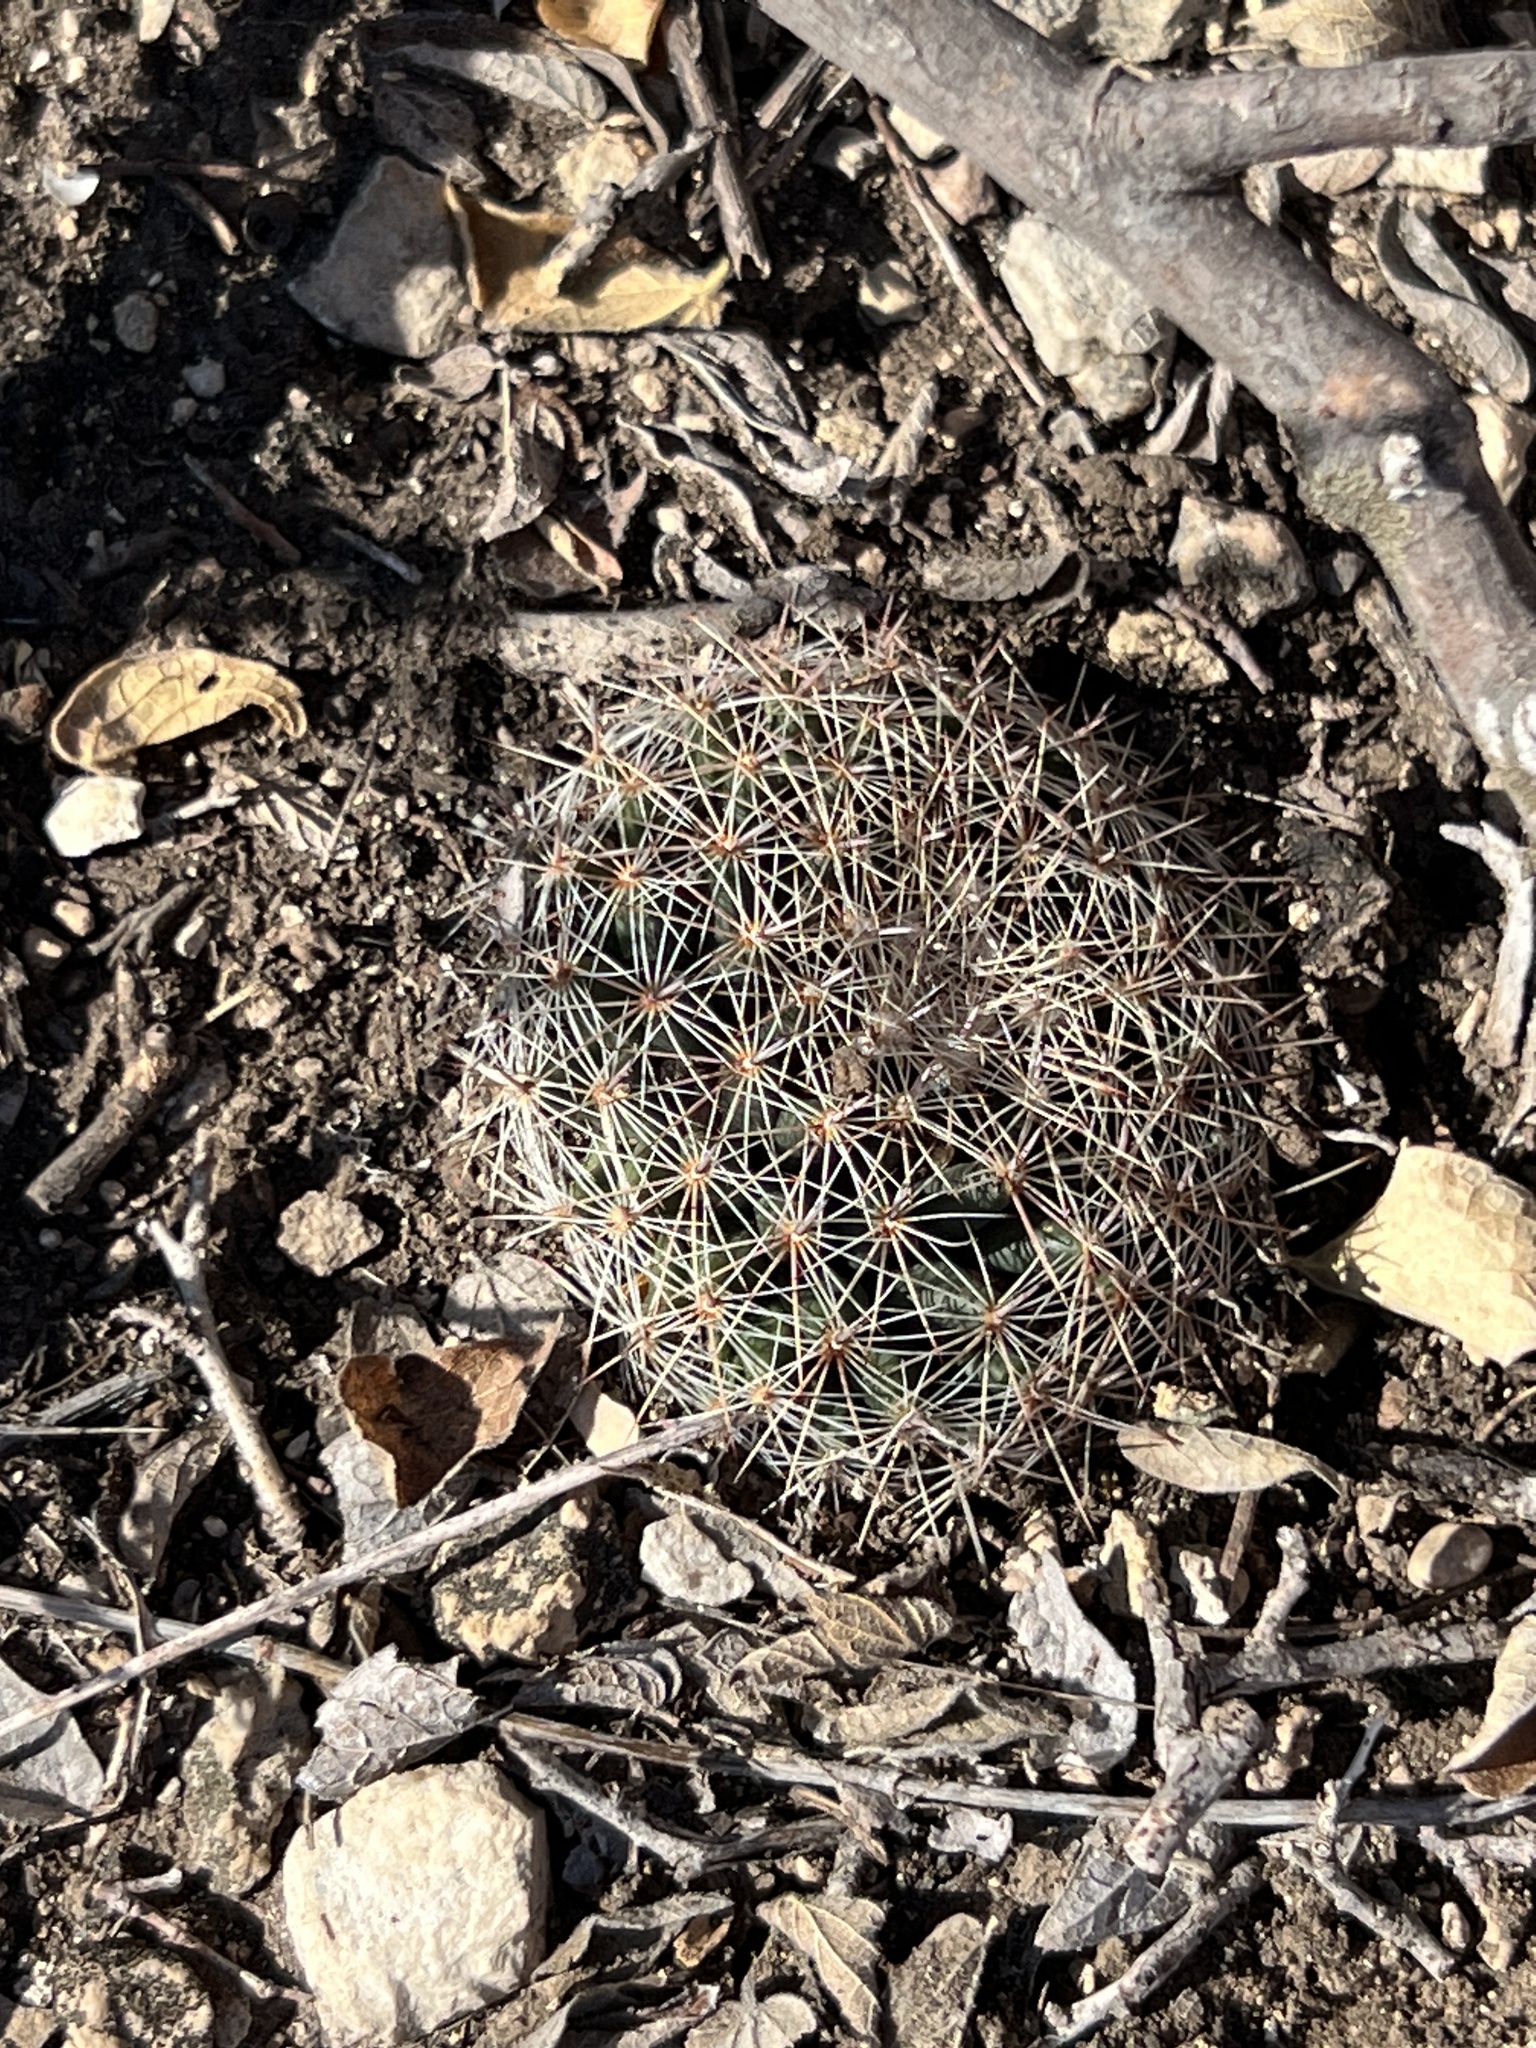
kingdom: Plantae
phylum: Tracheophyta
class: Magnoliopsida
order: Caryophyllales
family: Cactaceae
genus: Mammillaria
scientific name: Mammillaria heyderi
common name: Little nipple cactus
